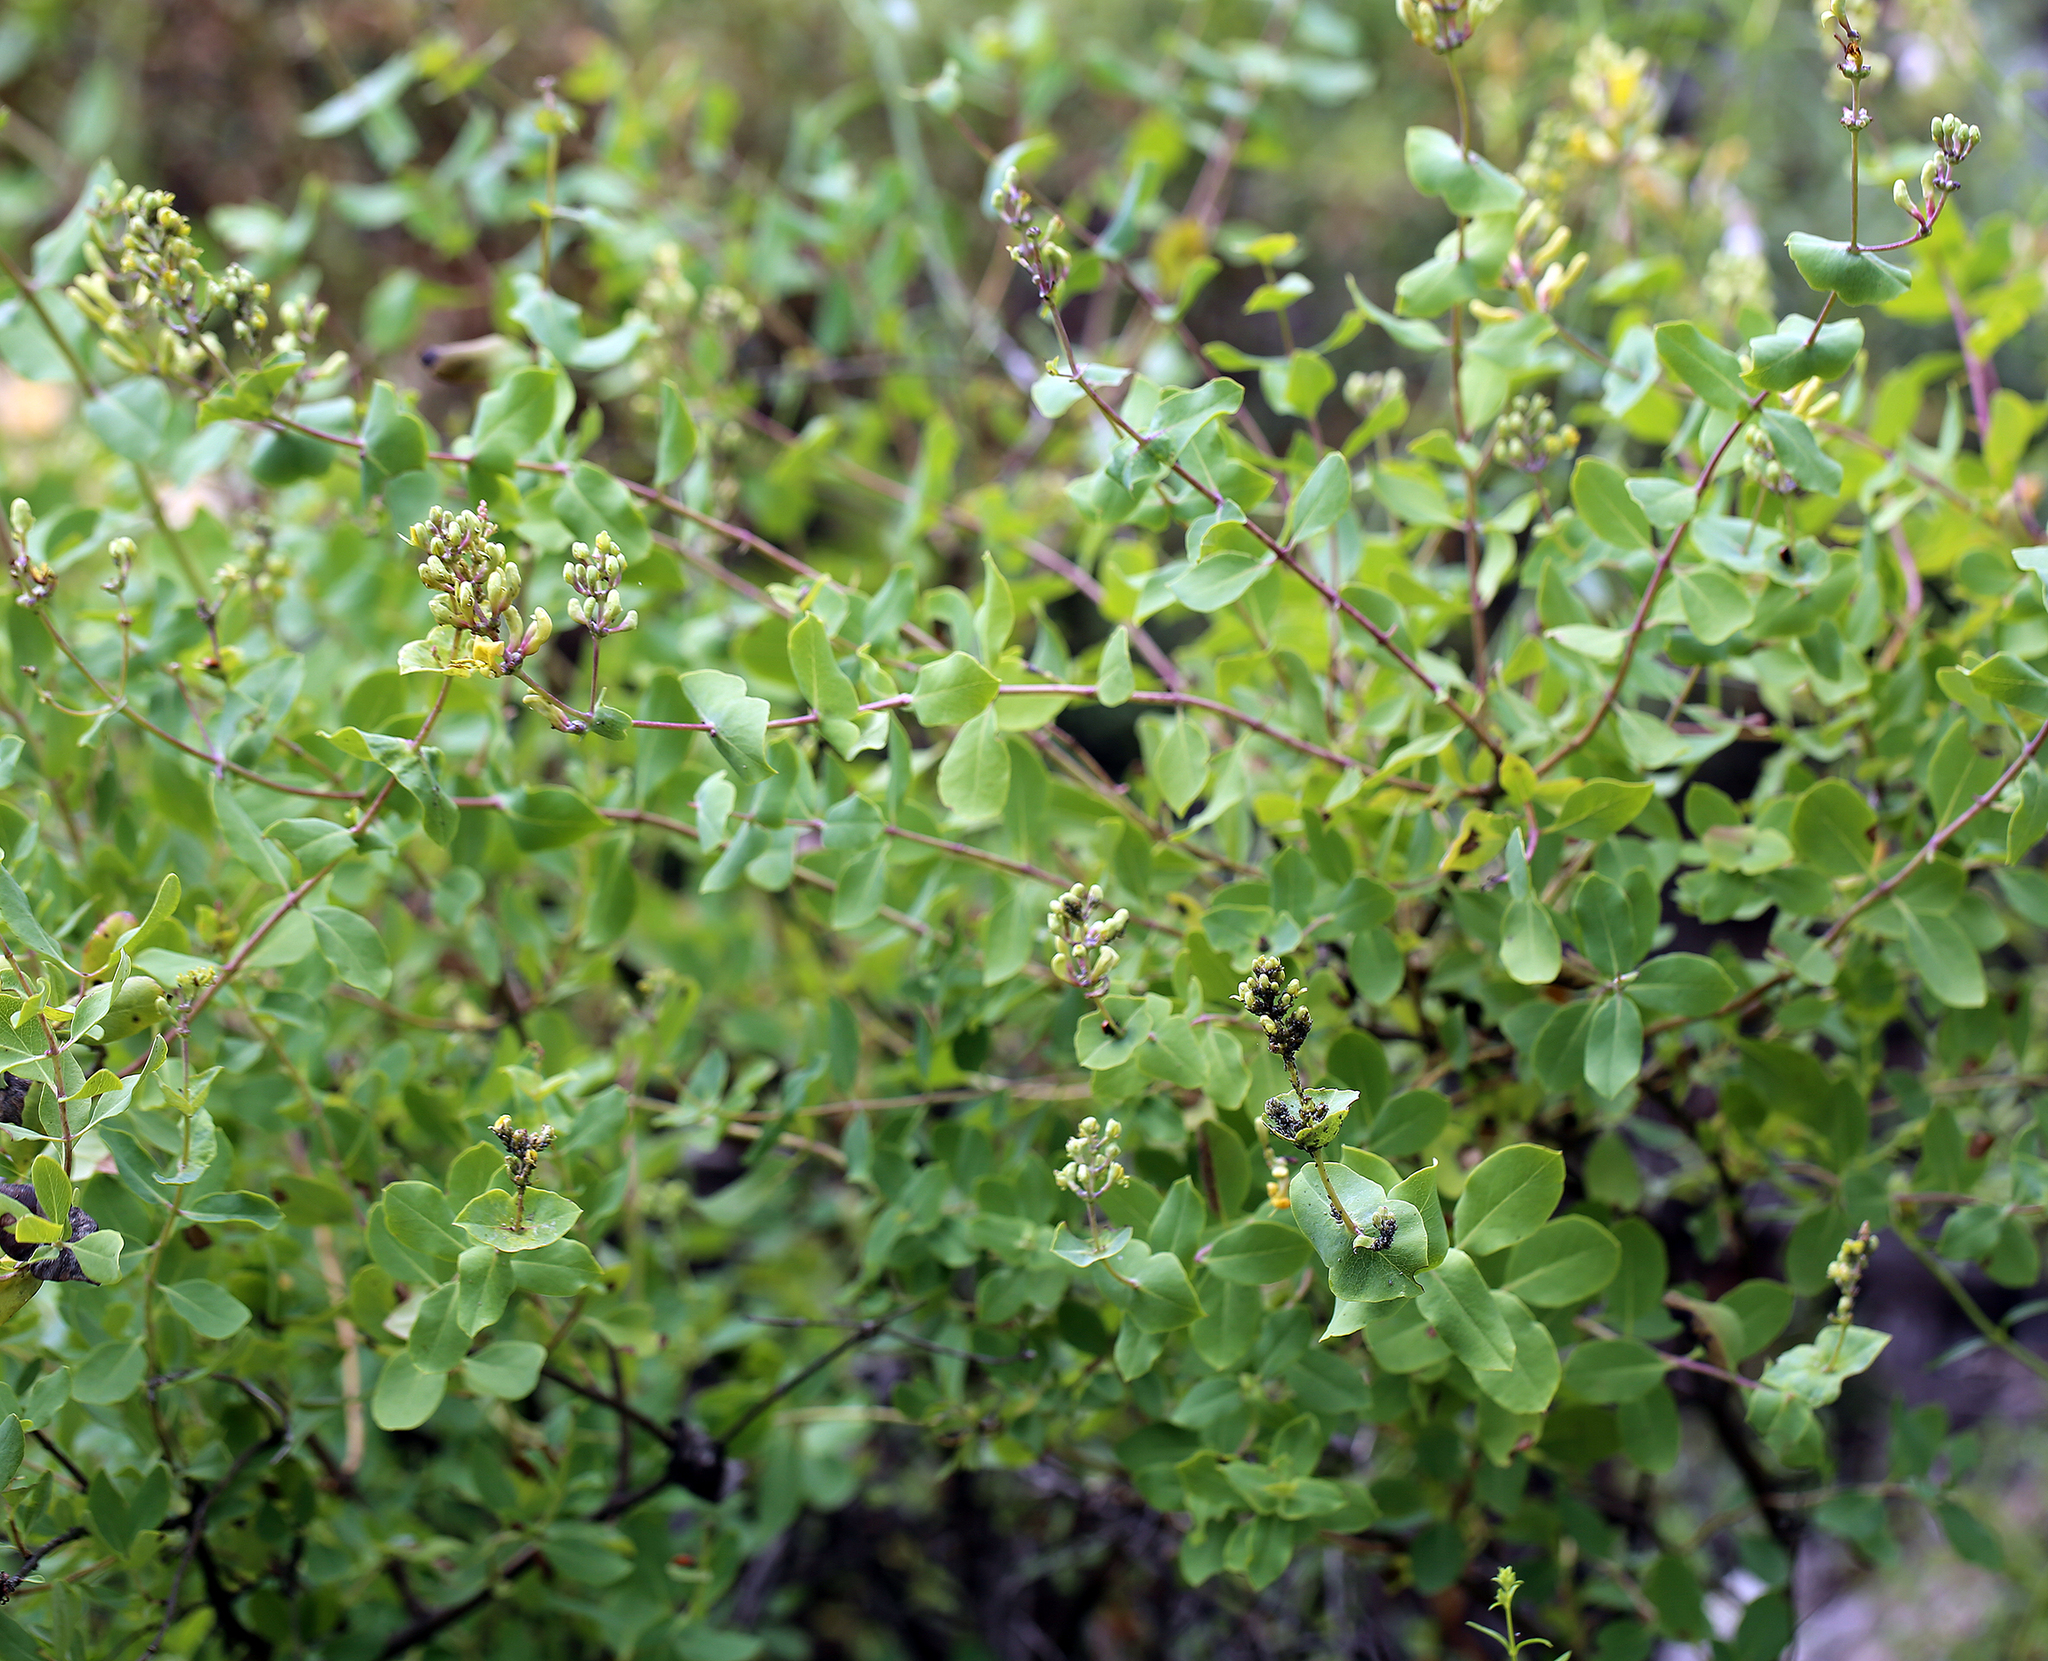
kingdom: Plantae
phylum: Tracheophyta
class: Magnoliopsida
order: Dipsacales
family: Caprifoliaceae
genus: Lonicera
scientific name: Lonicera interrupta
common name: Chaparral honeysuckle
